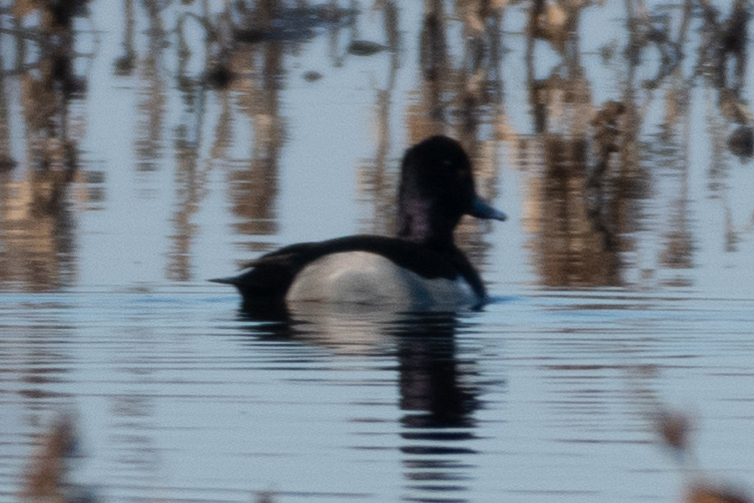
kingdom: Animalia
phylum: Chordata
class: Aves
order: Anseriformes
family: Anatidae
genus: Aythya
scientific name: Aythya collaris
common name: Ring-necked duck
